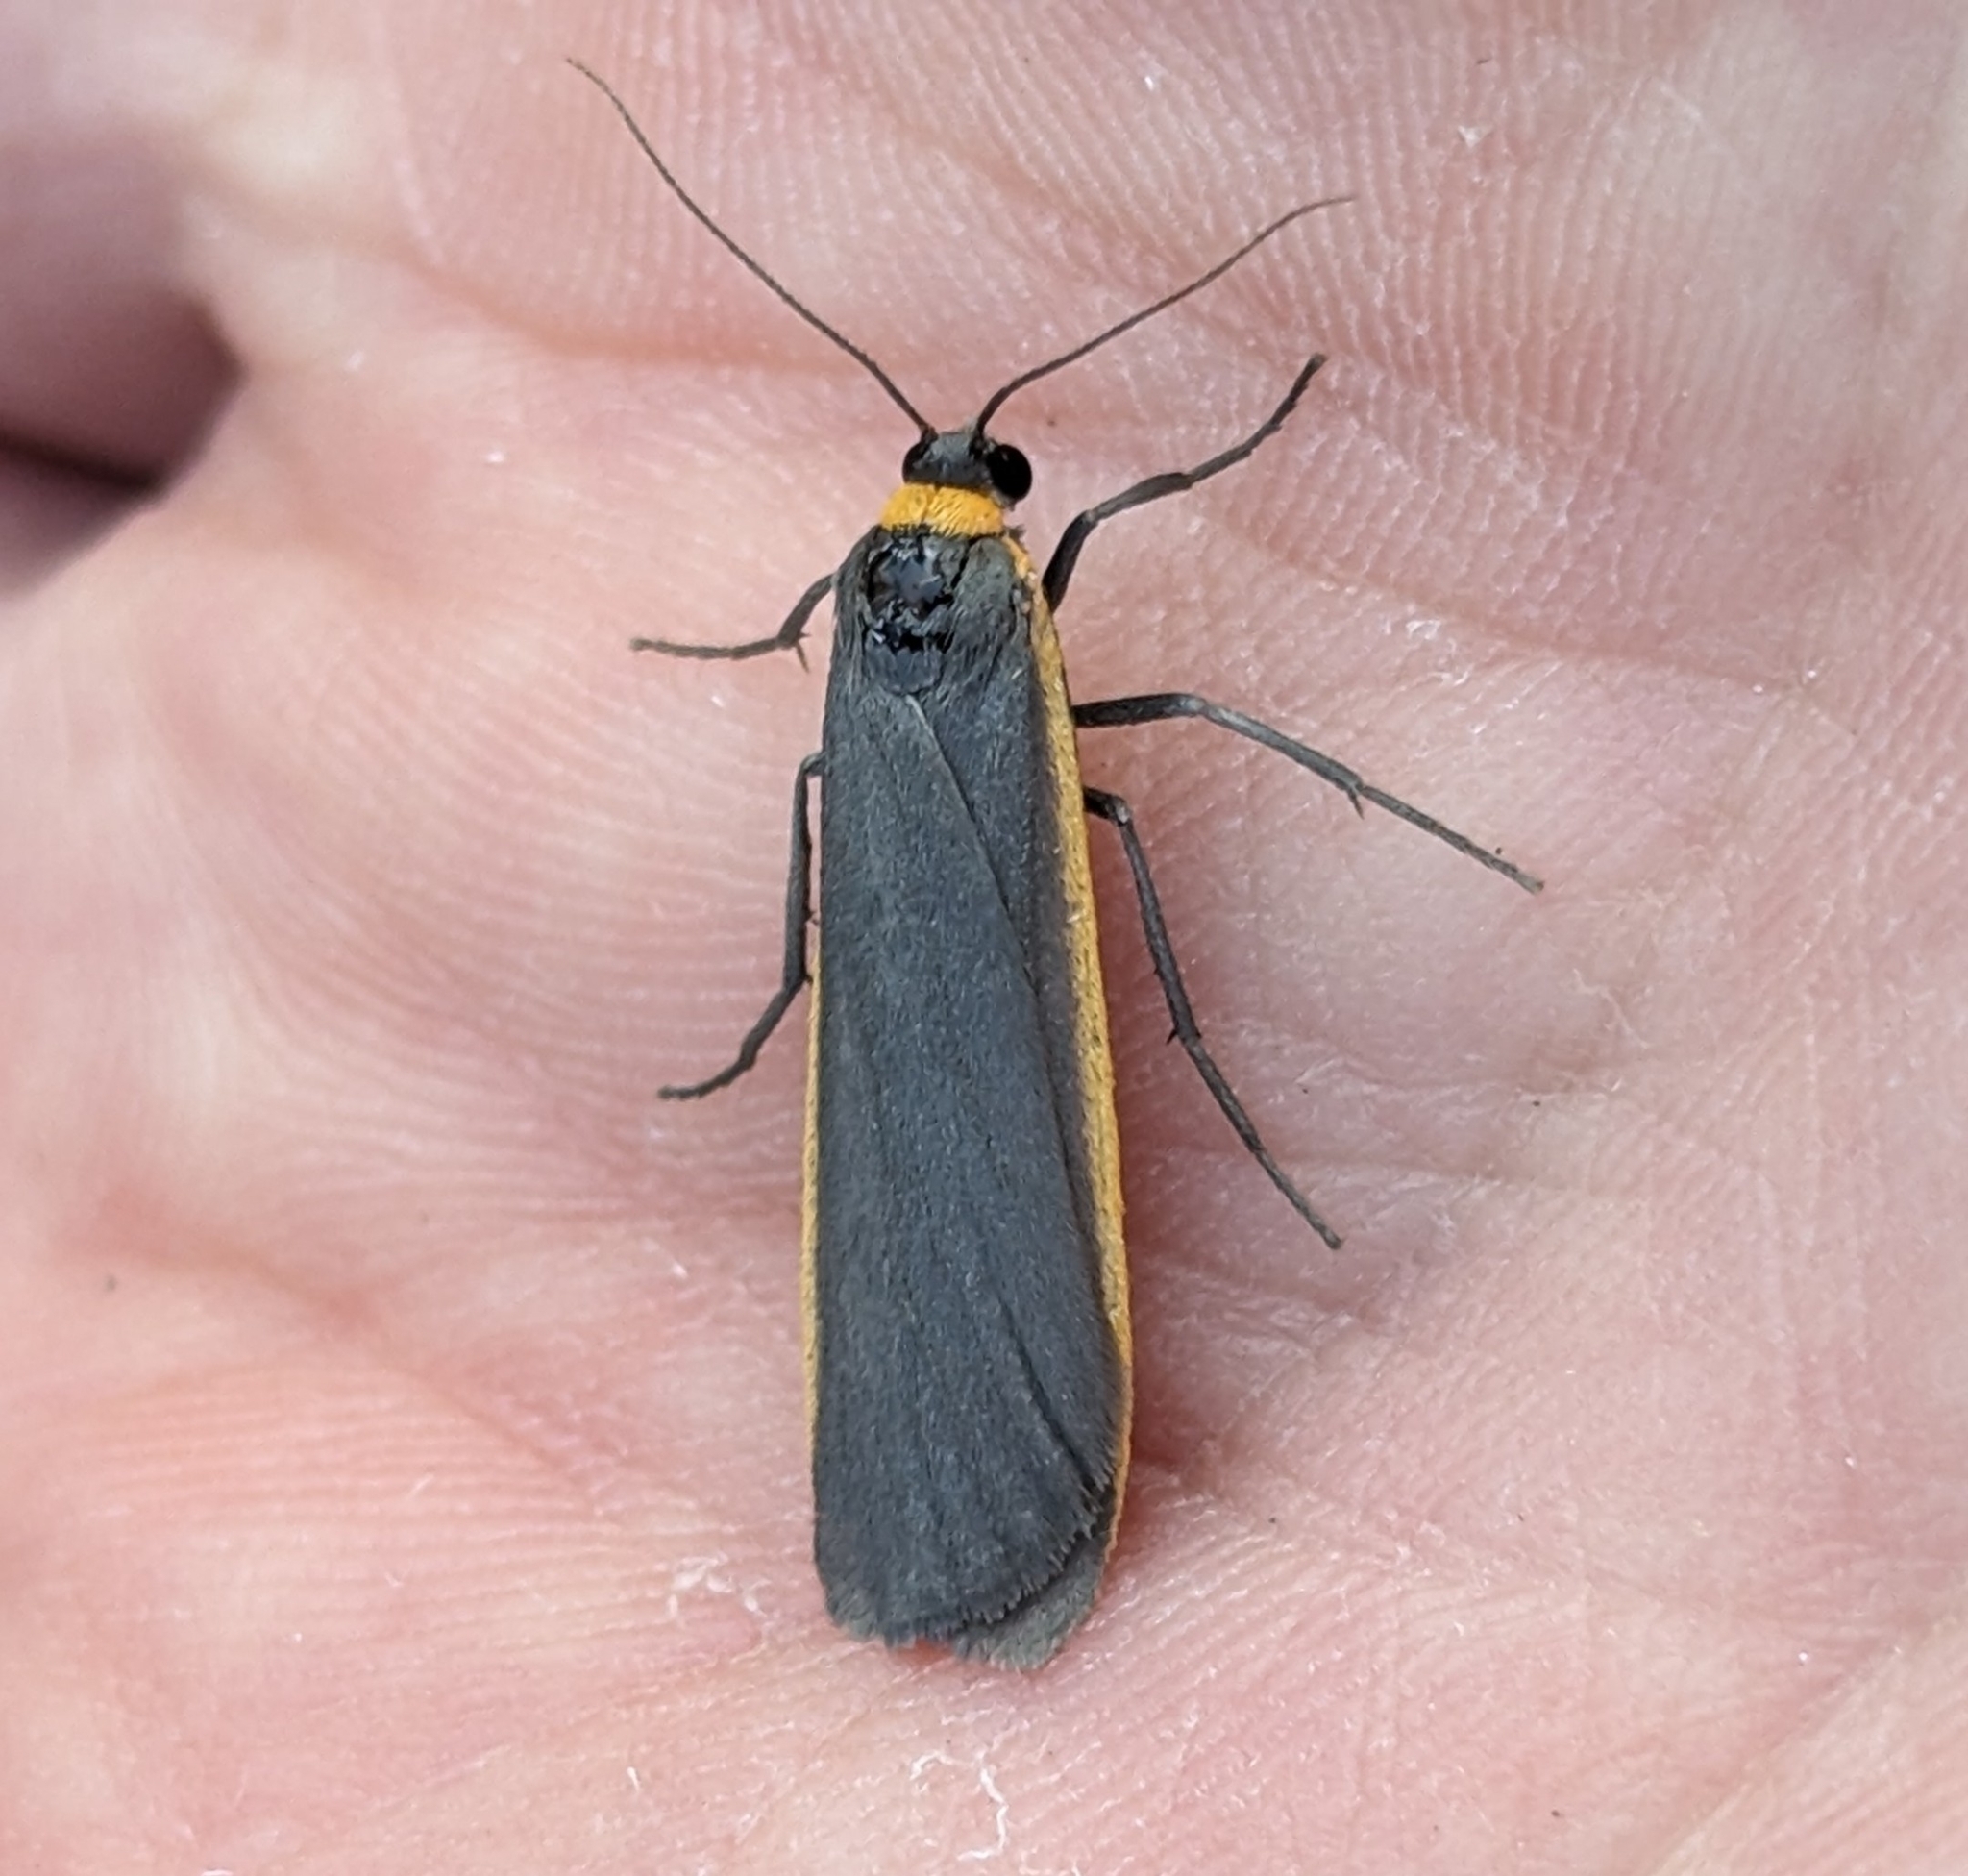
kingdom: Animalia
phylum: Arthropoda
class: Insecta
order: Lepidoptera
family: Erebidae
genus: Manulea
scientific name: Manulea bicolor
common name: Bicolored moth
